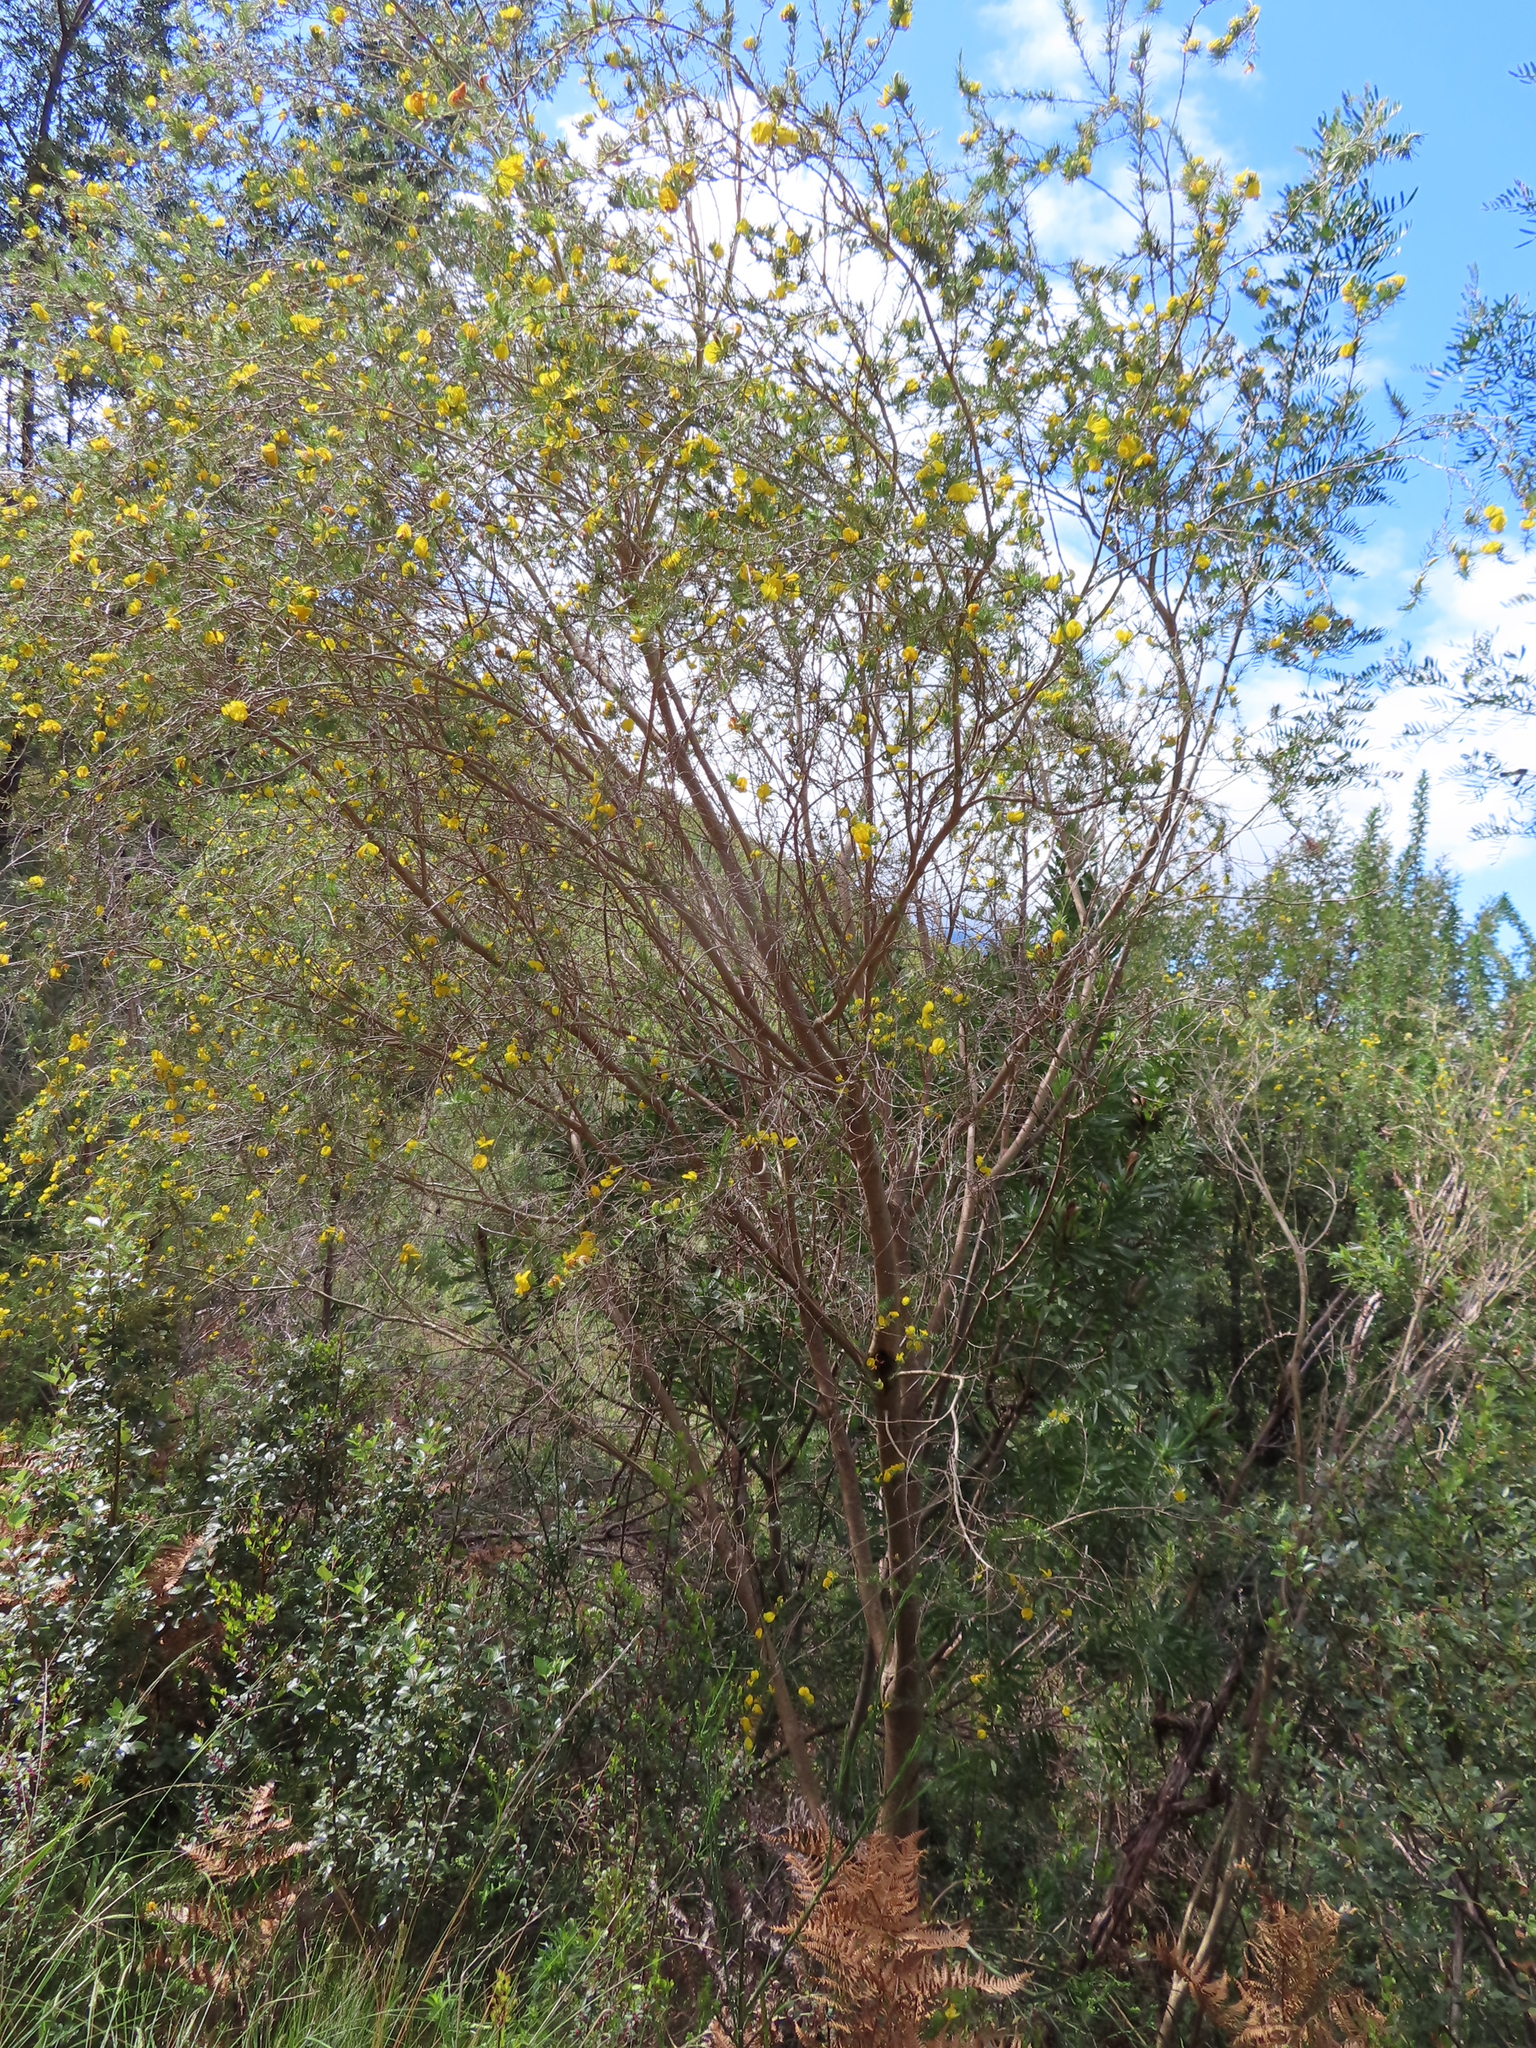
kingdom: Plantae
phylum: Tracheophyta
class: Magnoliopsida
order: Fabales
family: Fabaceae
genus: Aspalathus
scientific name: Aspalathus willdenowiana
